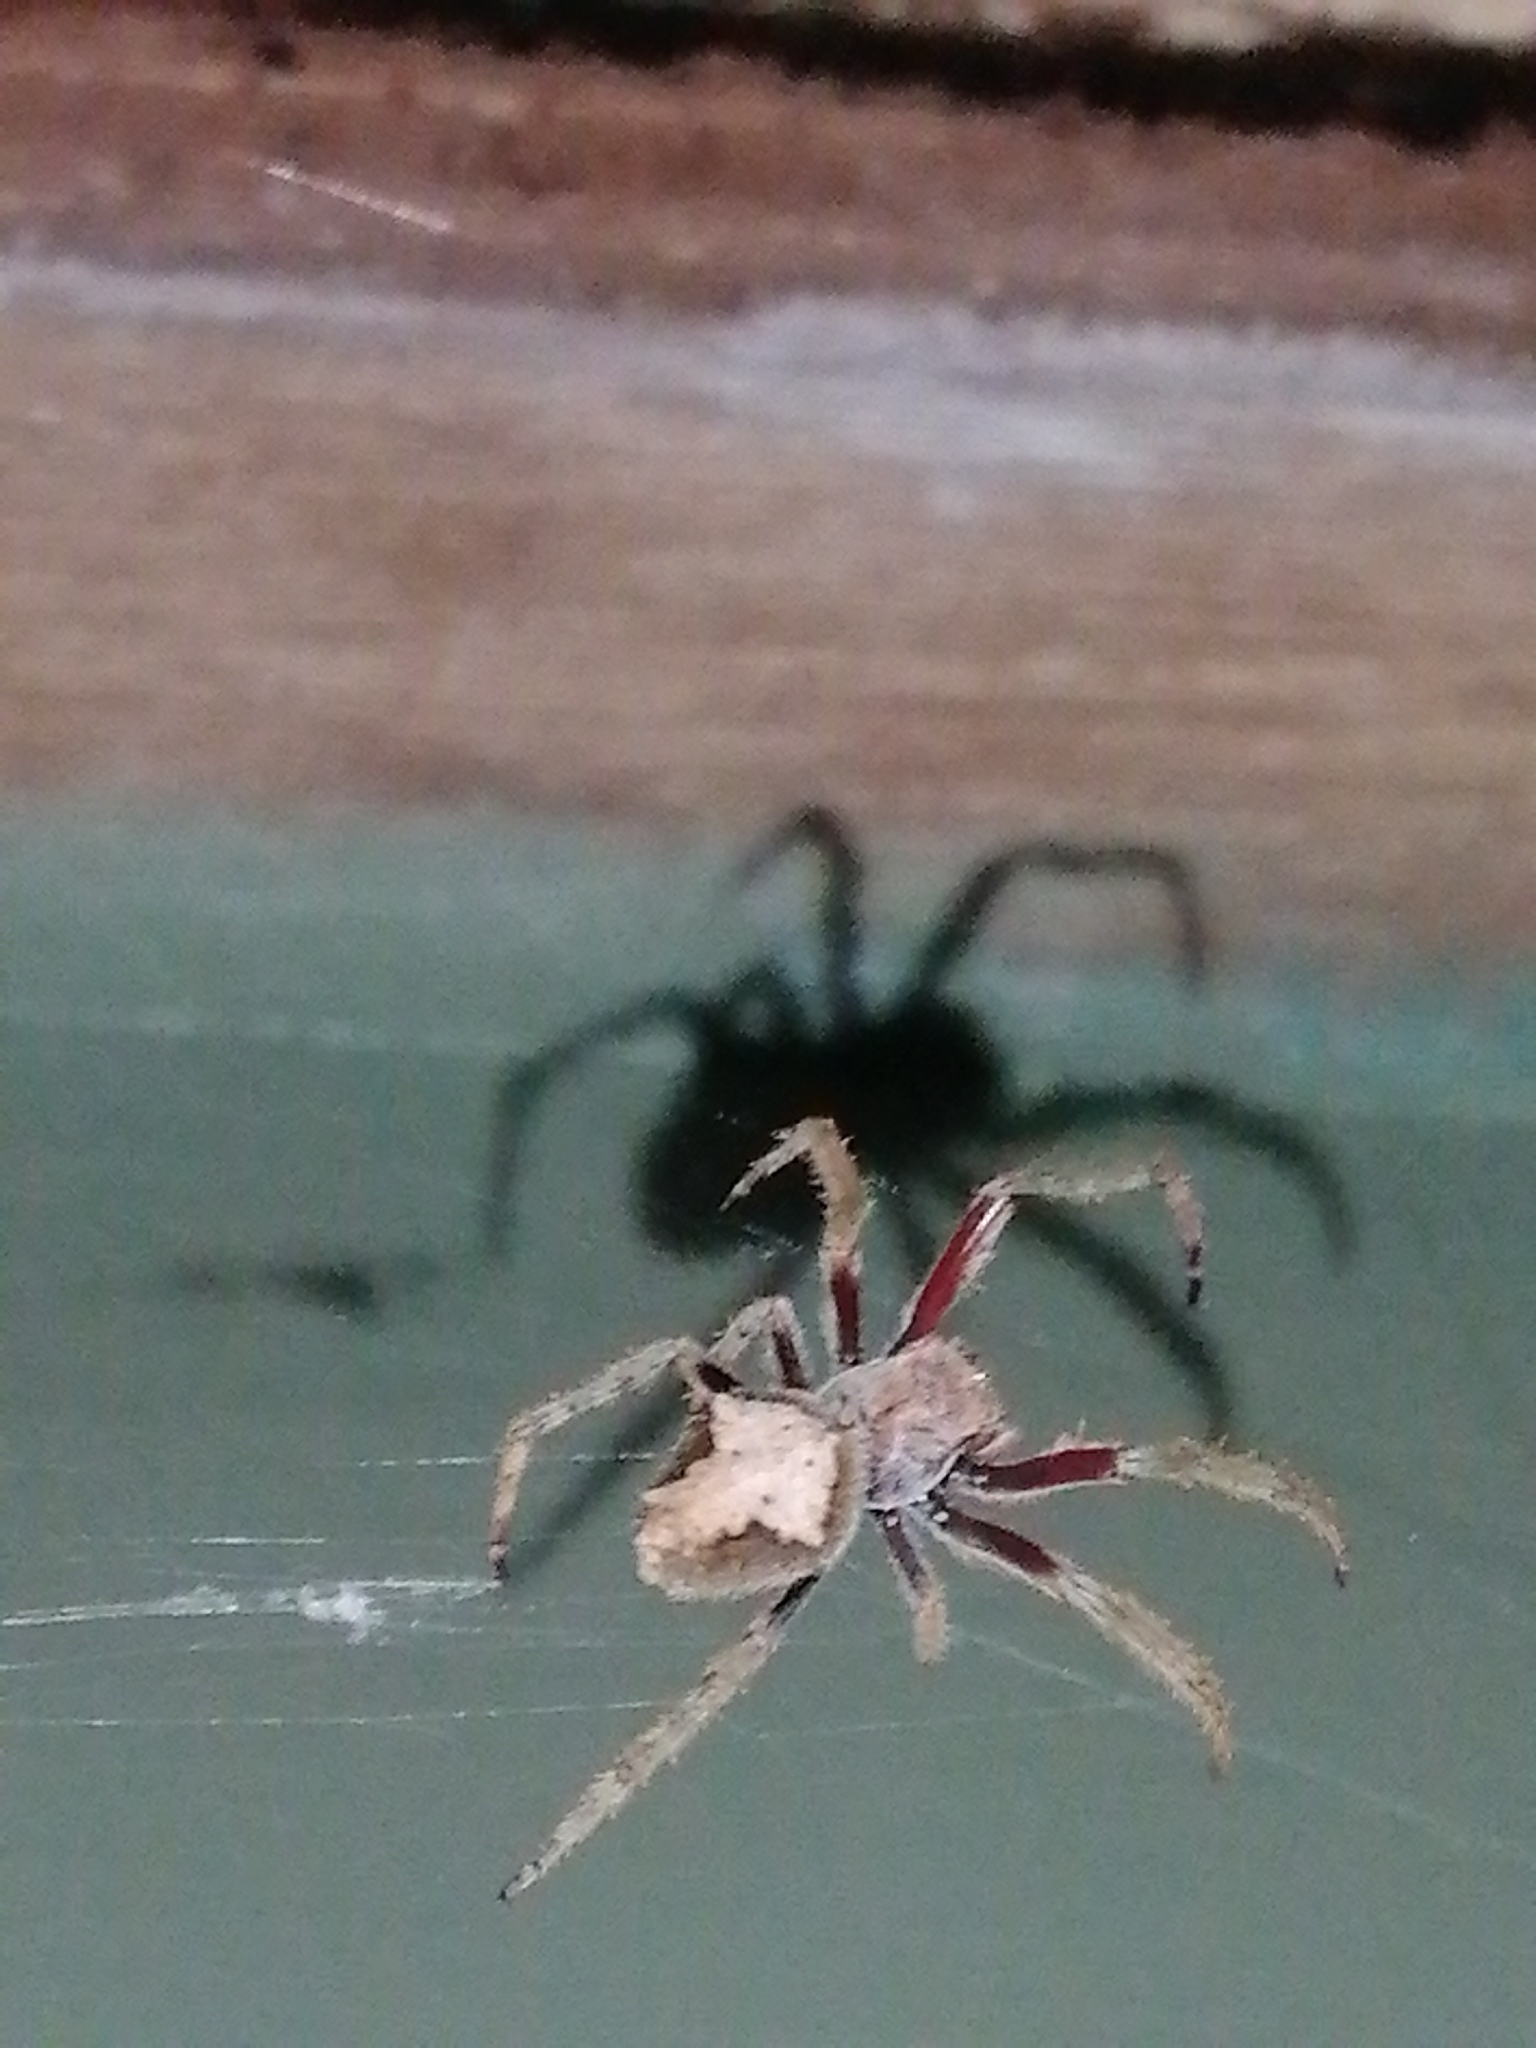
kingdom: Animalia
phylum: Arthropoda
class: Arachnida
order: Araneae
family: Araneidae
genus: Eriophora
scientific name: Eriophora pustulosa
